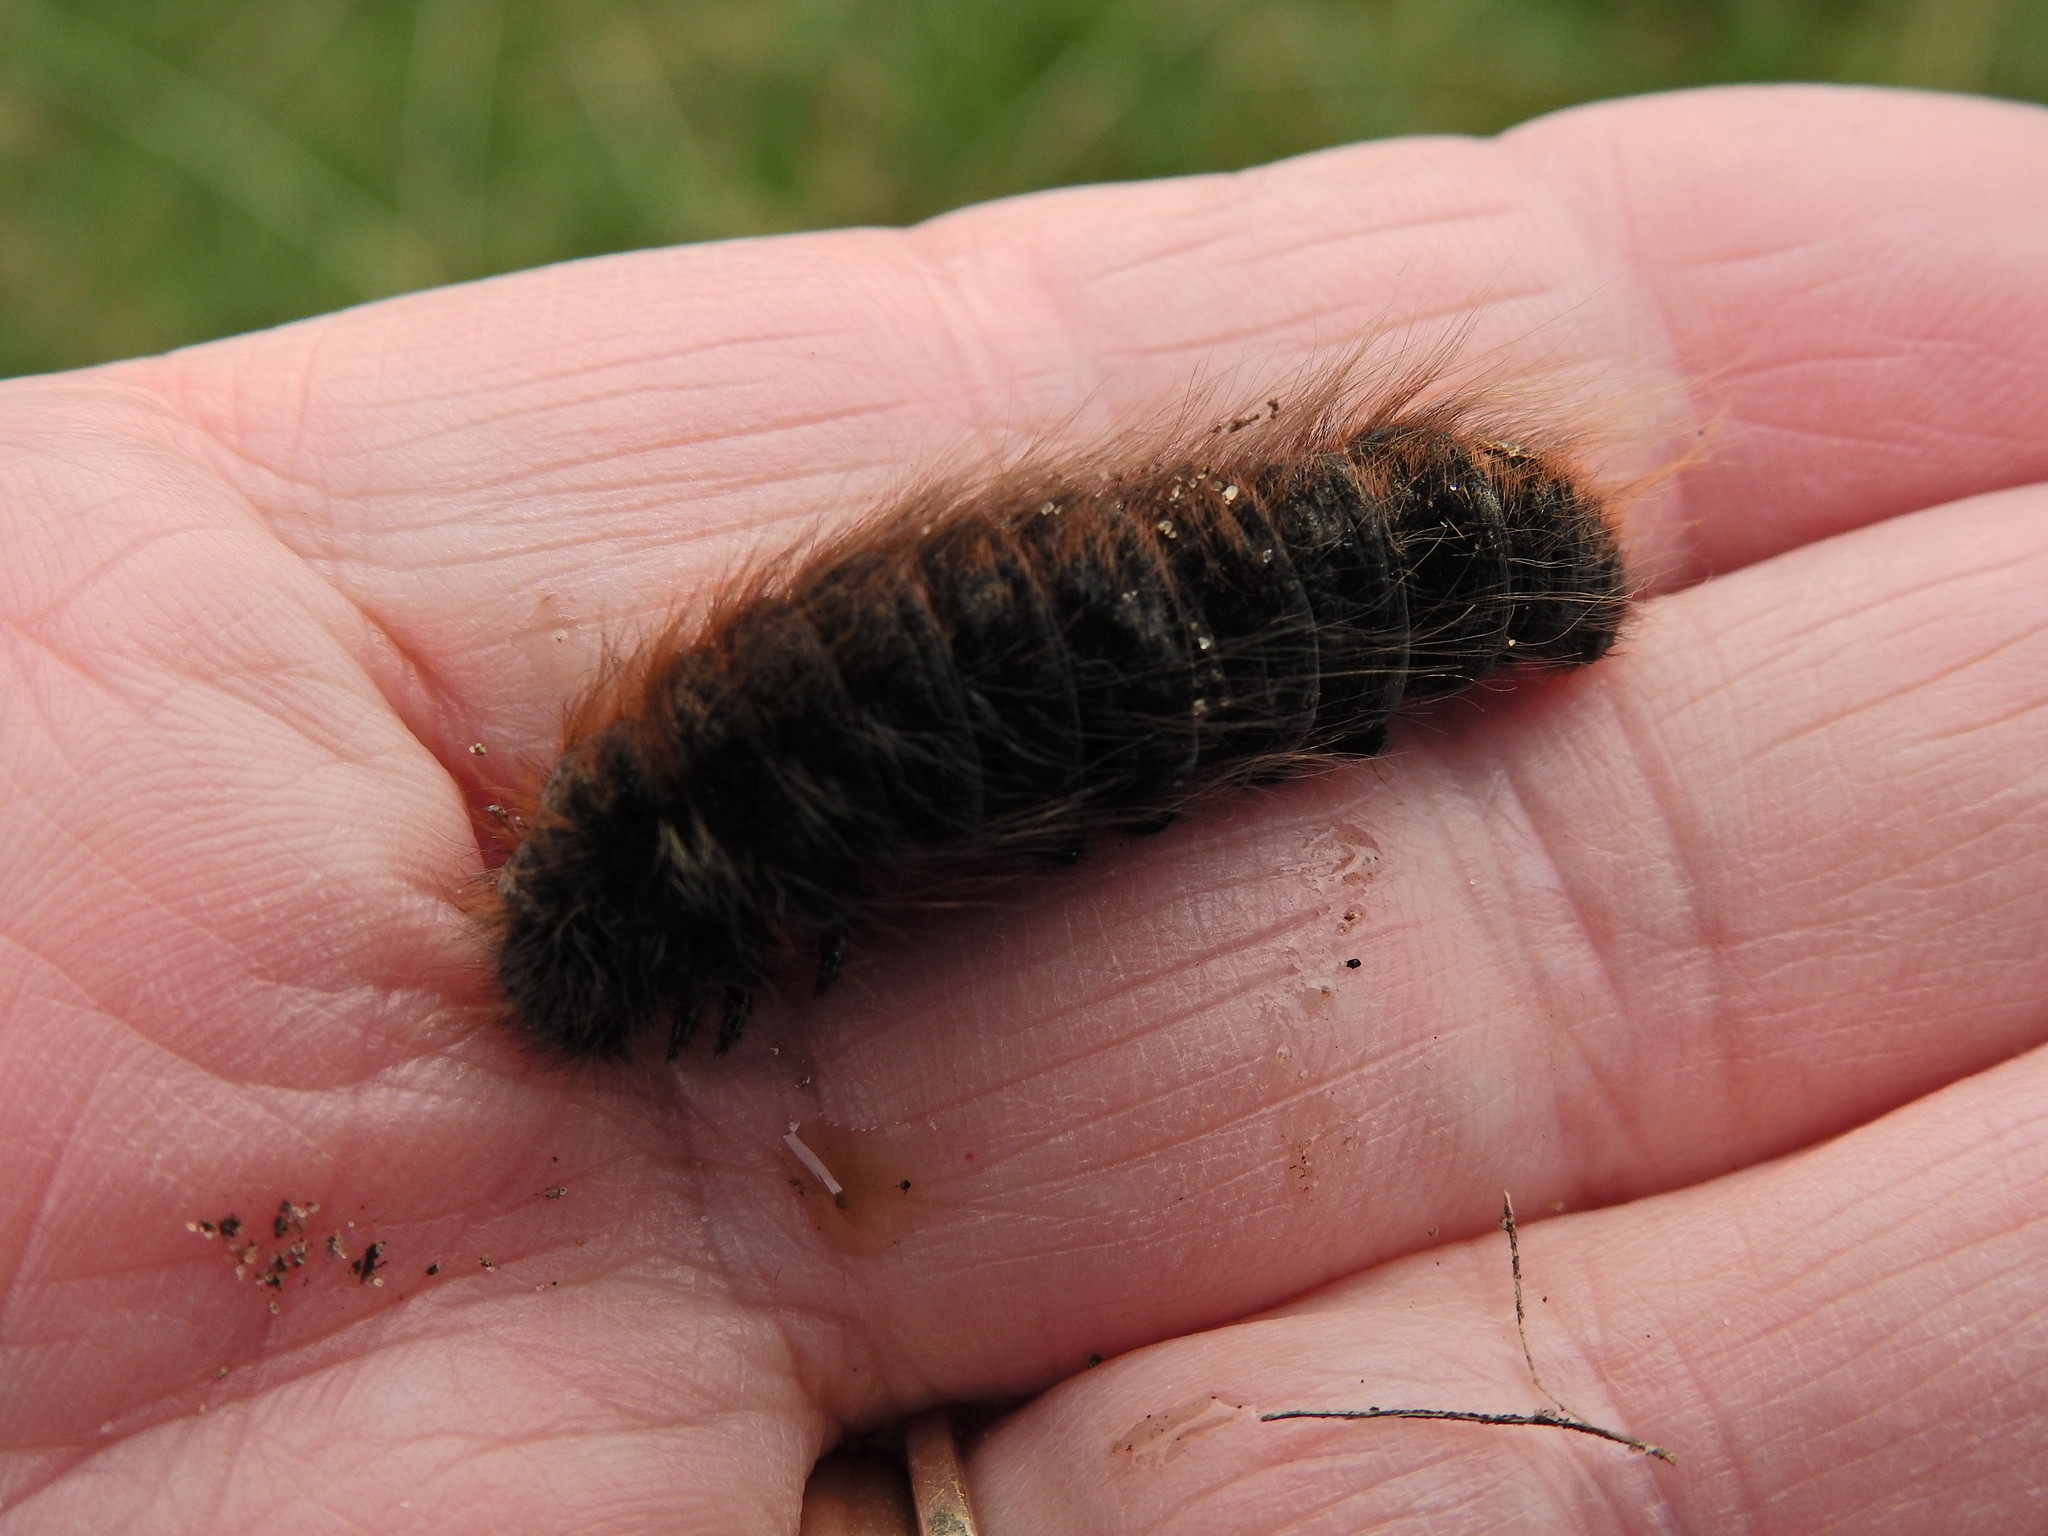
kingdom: Animalia
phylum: Arthropoda
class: Insecta
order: Lepidoptera
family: Lasiocampidae
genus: Macrothylacia
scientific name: Macrothylacia rubi
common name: Fox moth
